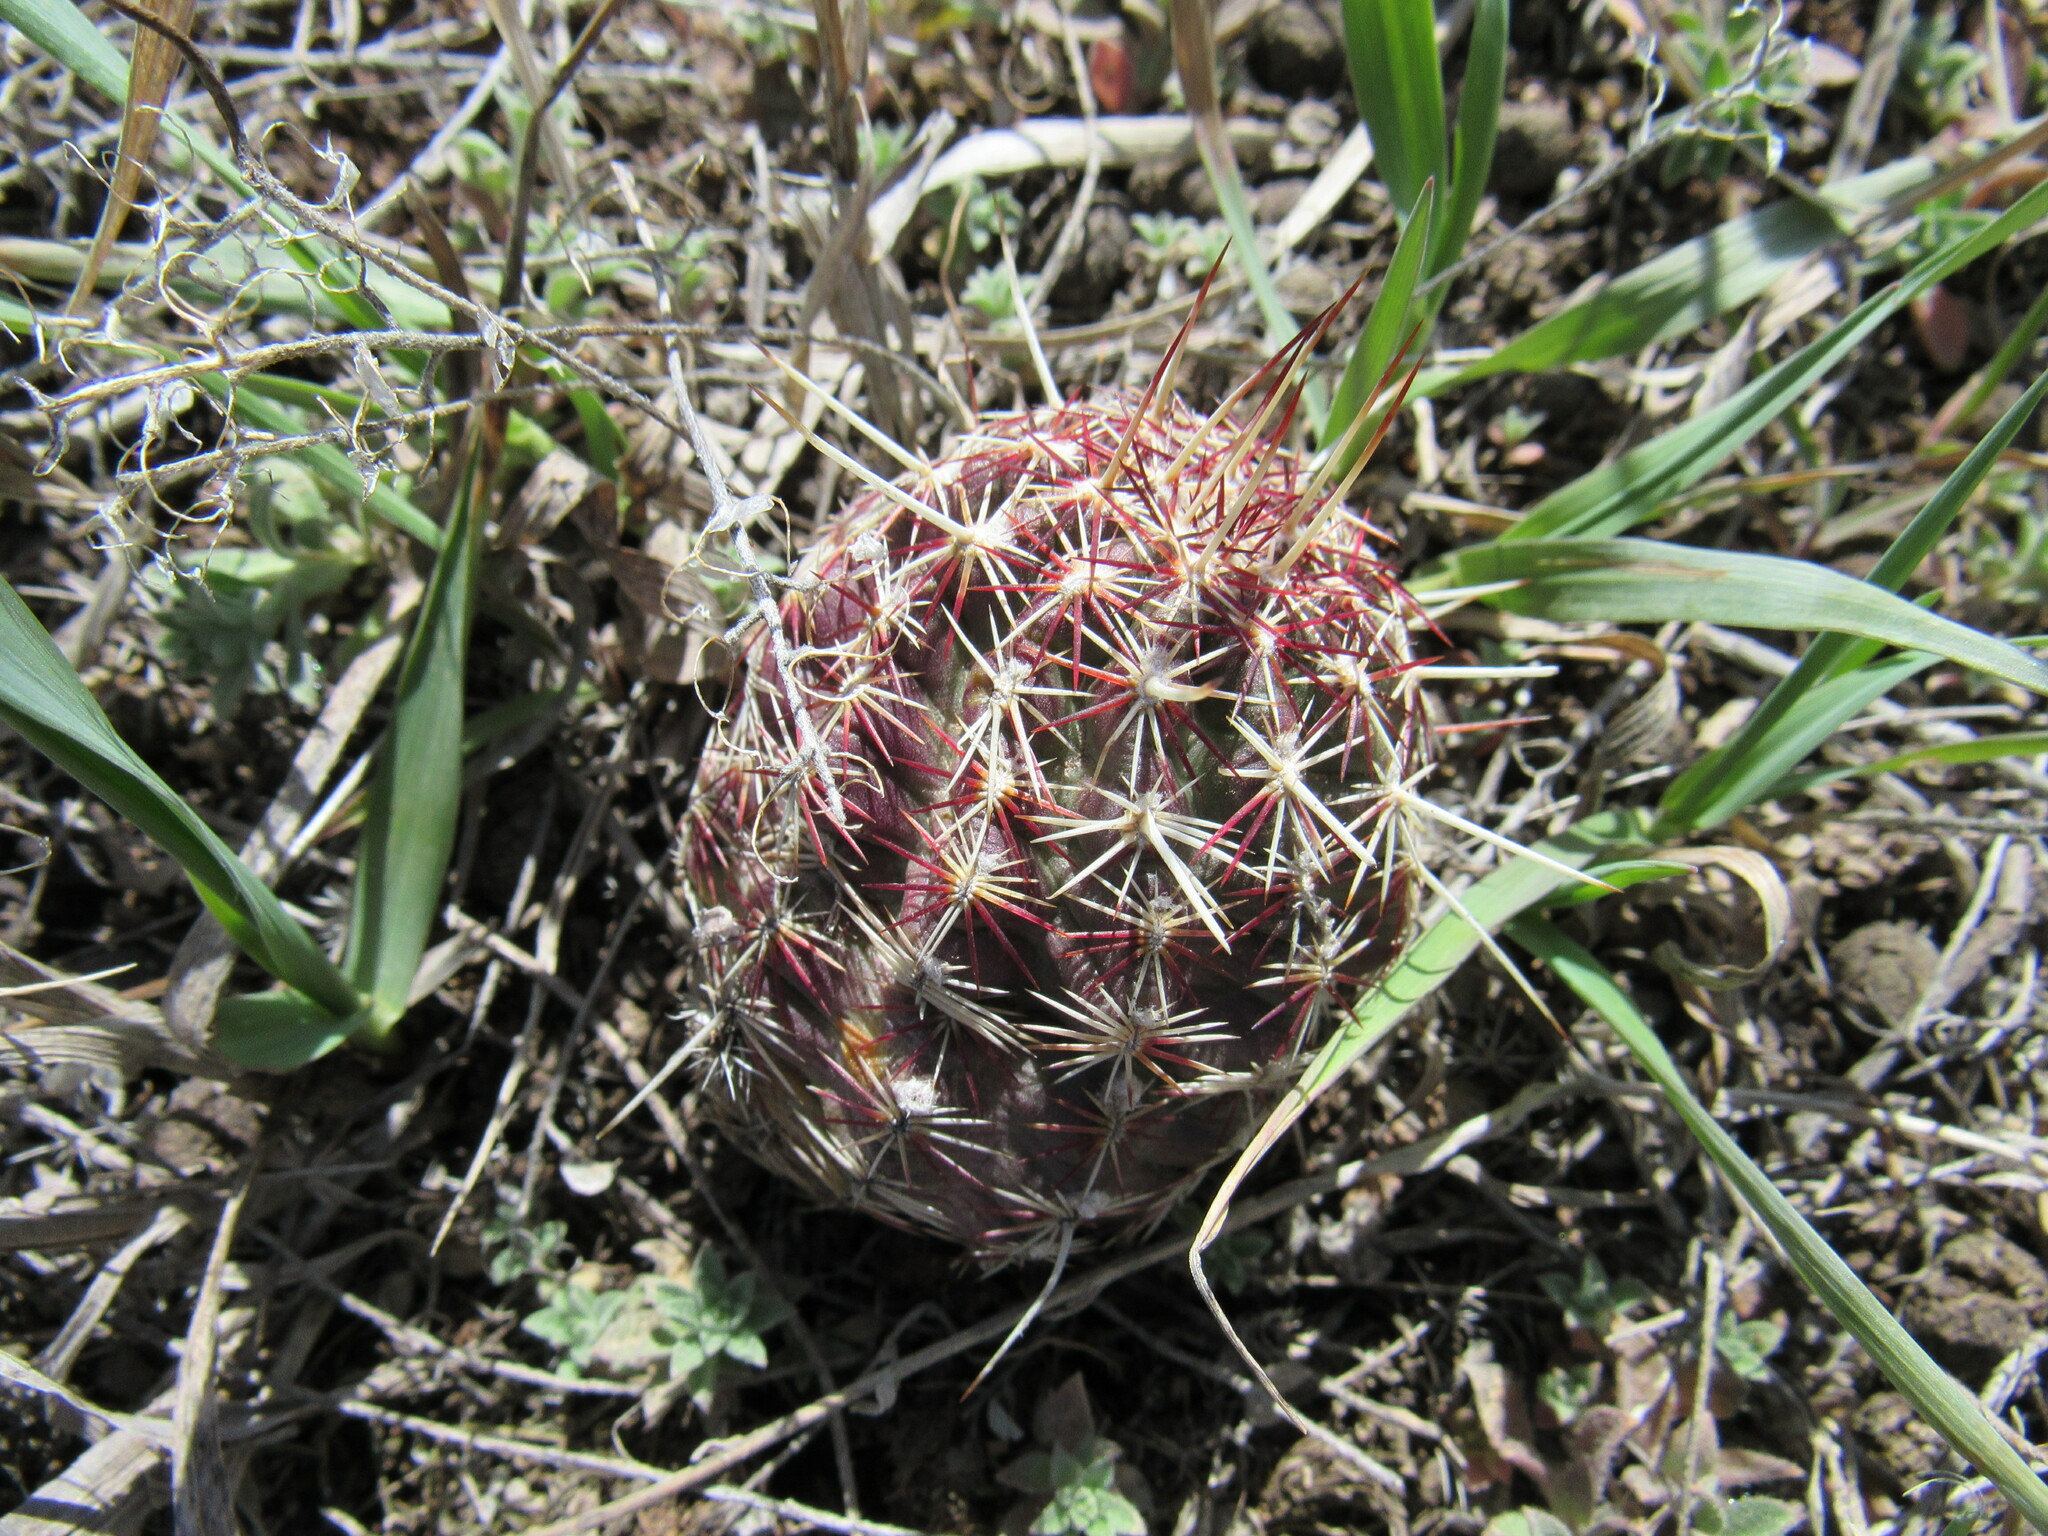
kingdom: Plantae
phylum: Tracheophyta
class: Magnoliopsida
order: Caryophyllales
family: Cactaceae
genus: Echinocereus
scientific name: Echinocereus viridiflorus
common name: Nylon hedgehog cactus
